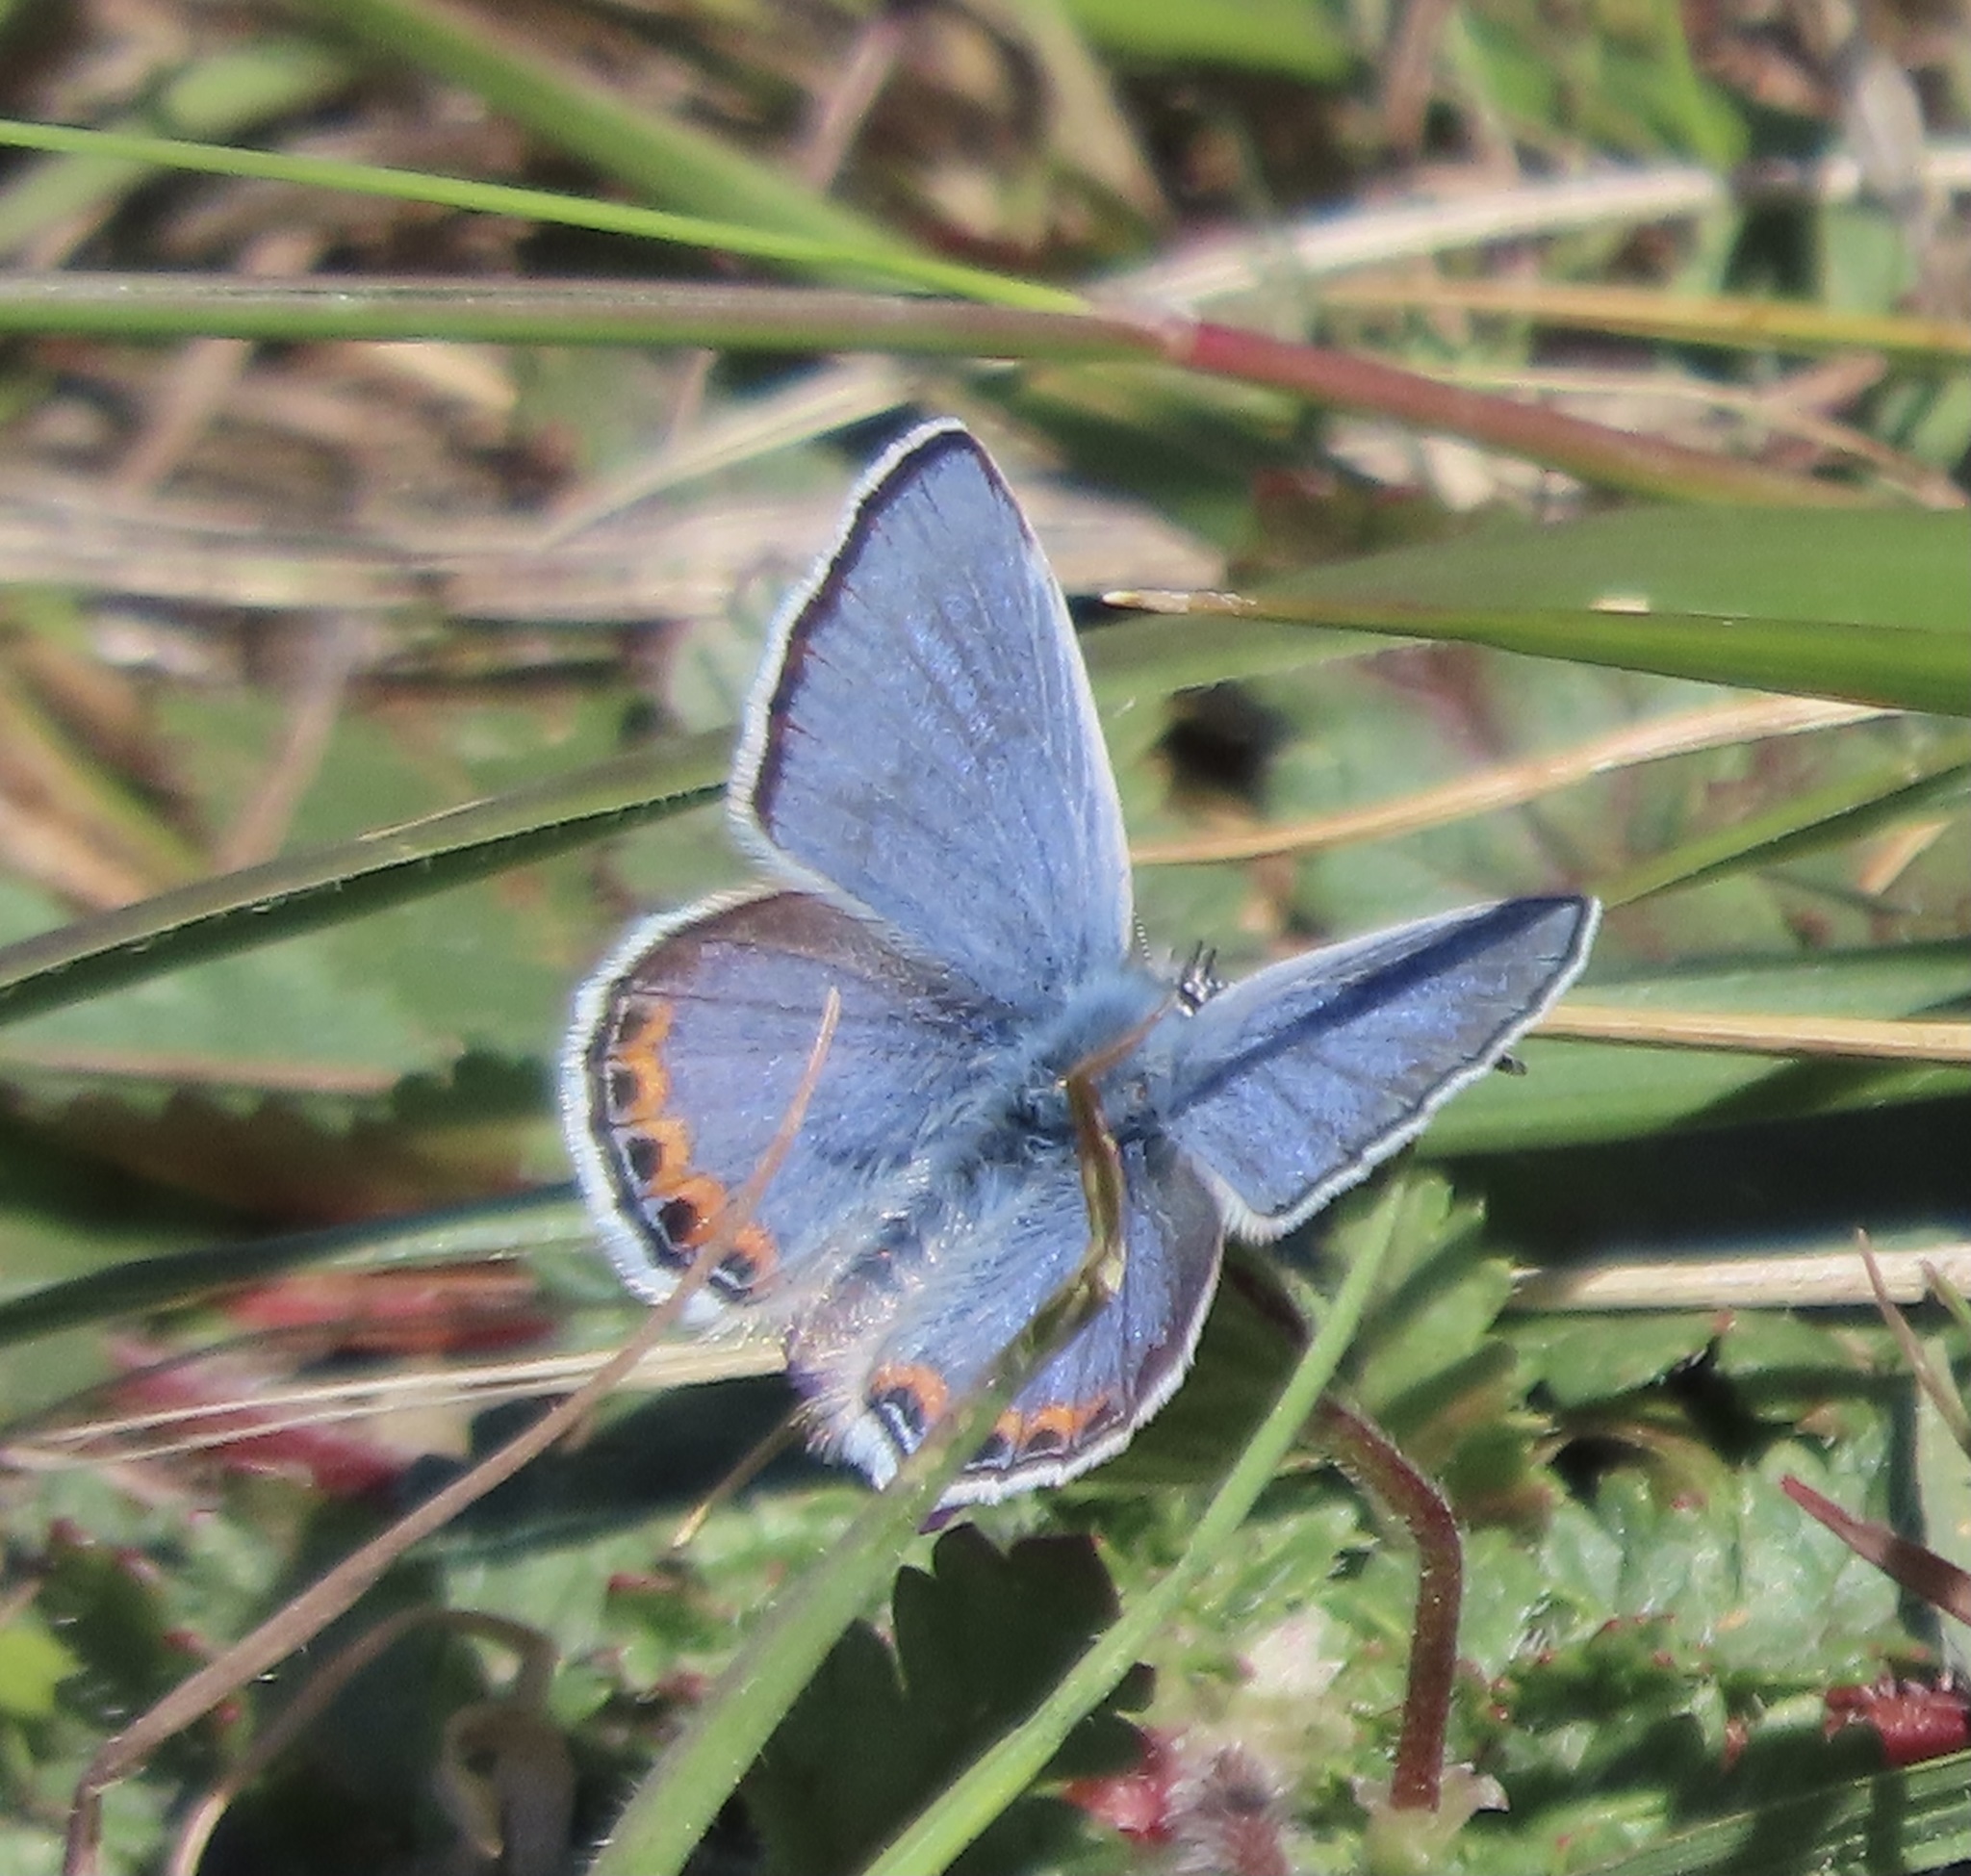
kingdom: Animalia
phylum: Arthropoda
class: Insecta
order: Lepidoptera
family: Lycaenidae
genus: Icaricia
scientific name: Icaricia acmon
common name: Acmon blue
